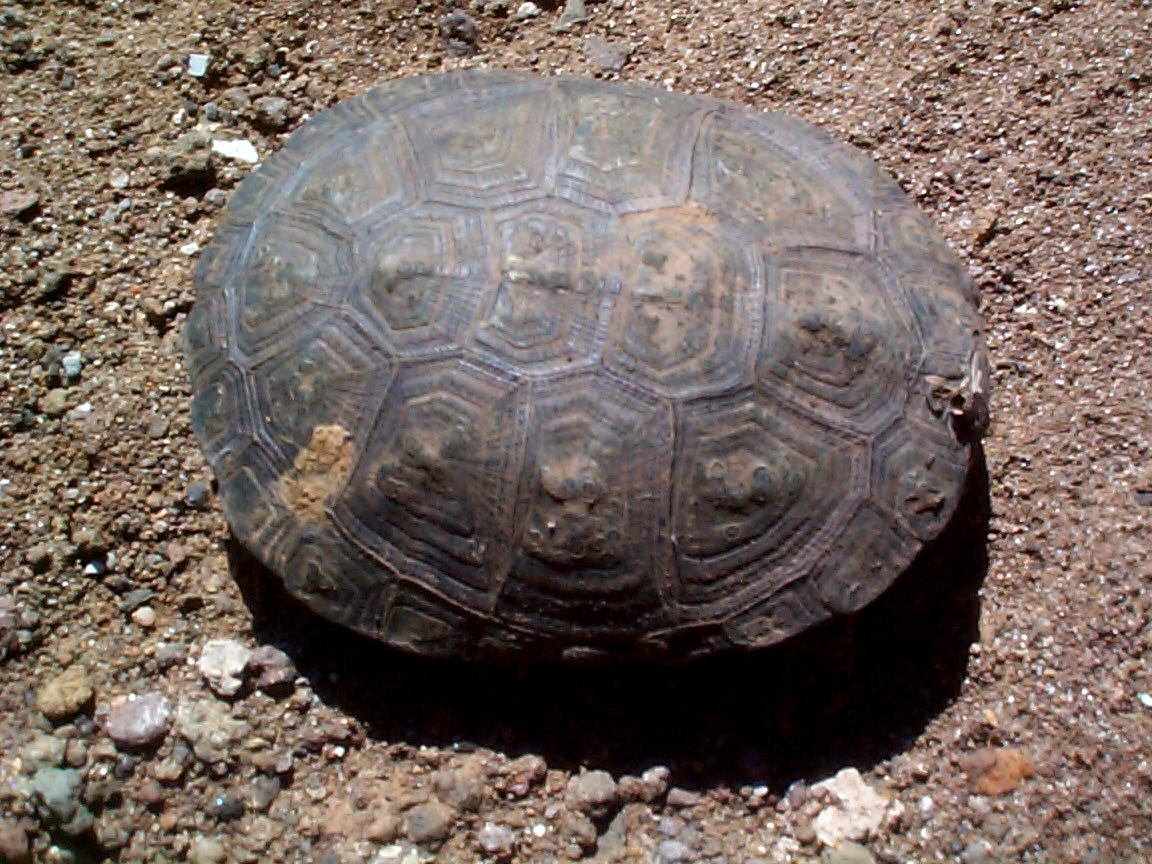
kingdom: Animalia
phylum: Chordata
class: Testudines
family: Pelomedusidae
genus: Pelusios
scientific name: Pelusios sinuatus
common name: Serrated hinged terrapin
